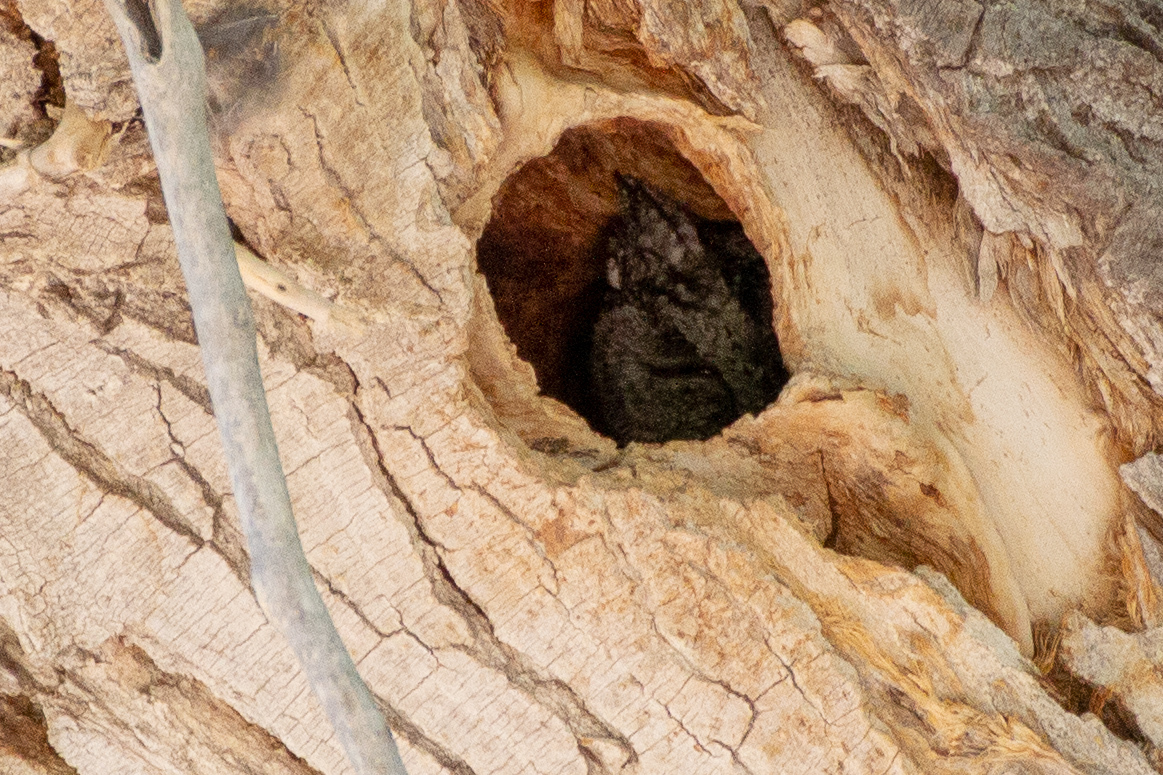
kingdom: Animalia
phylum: Chordata
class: Aves
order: Strigiformes
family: Strigidae
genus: Megascops
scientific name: Megascops kennicottii
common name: Western screech-owl
